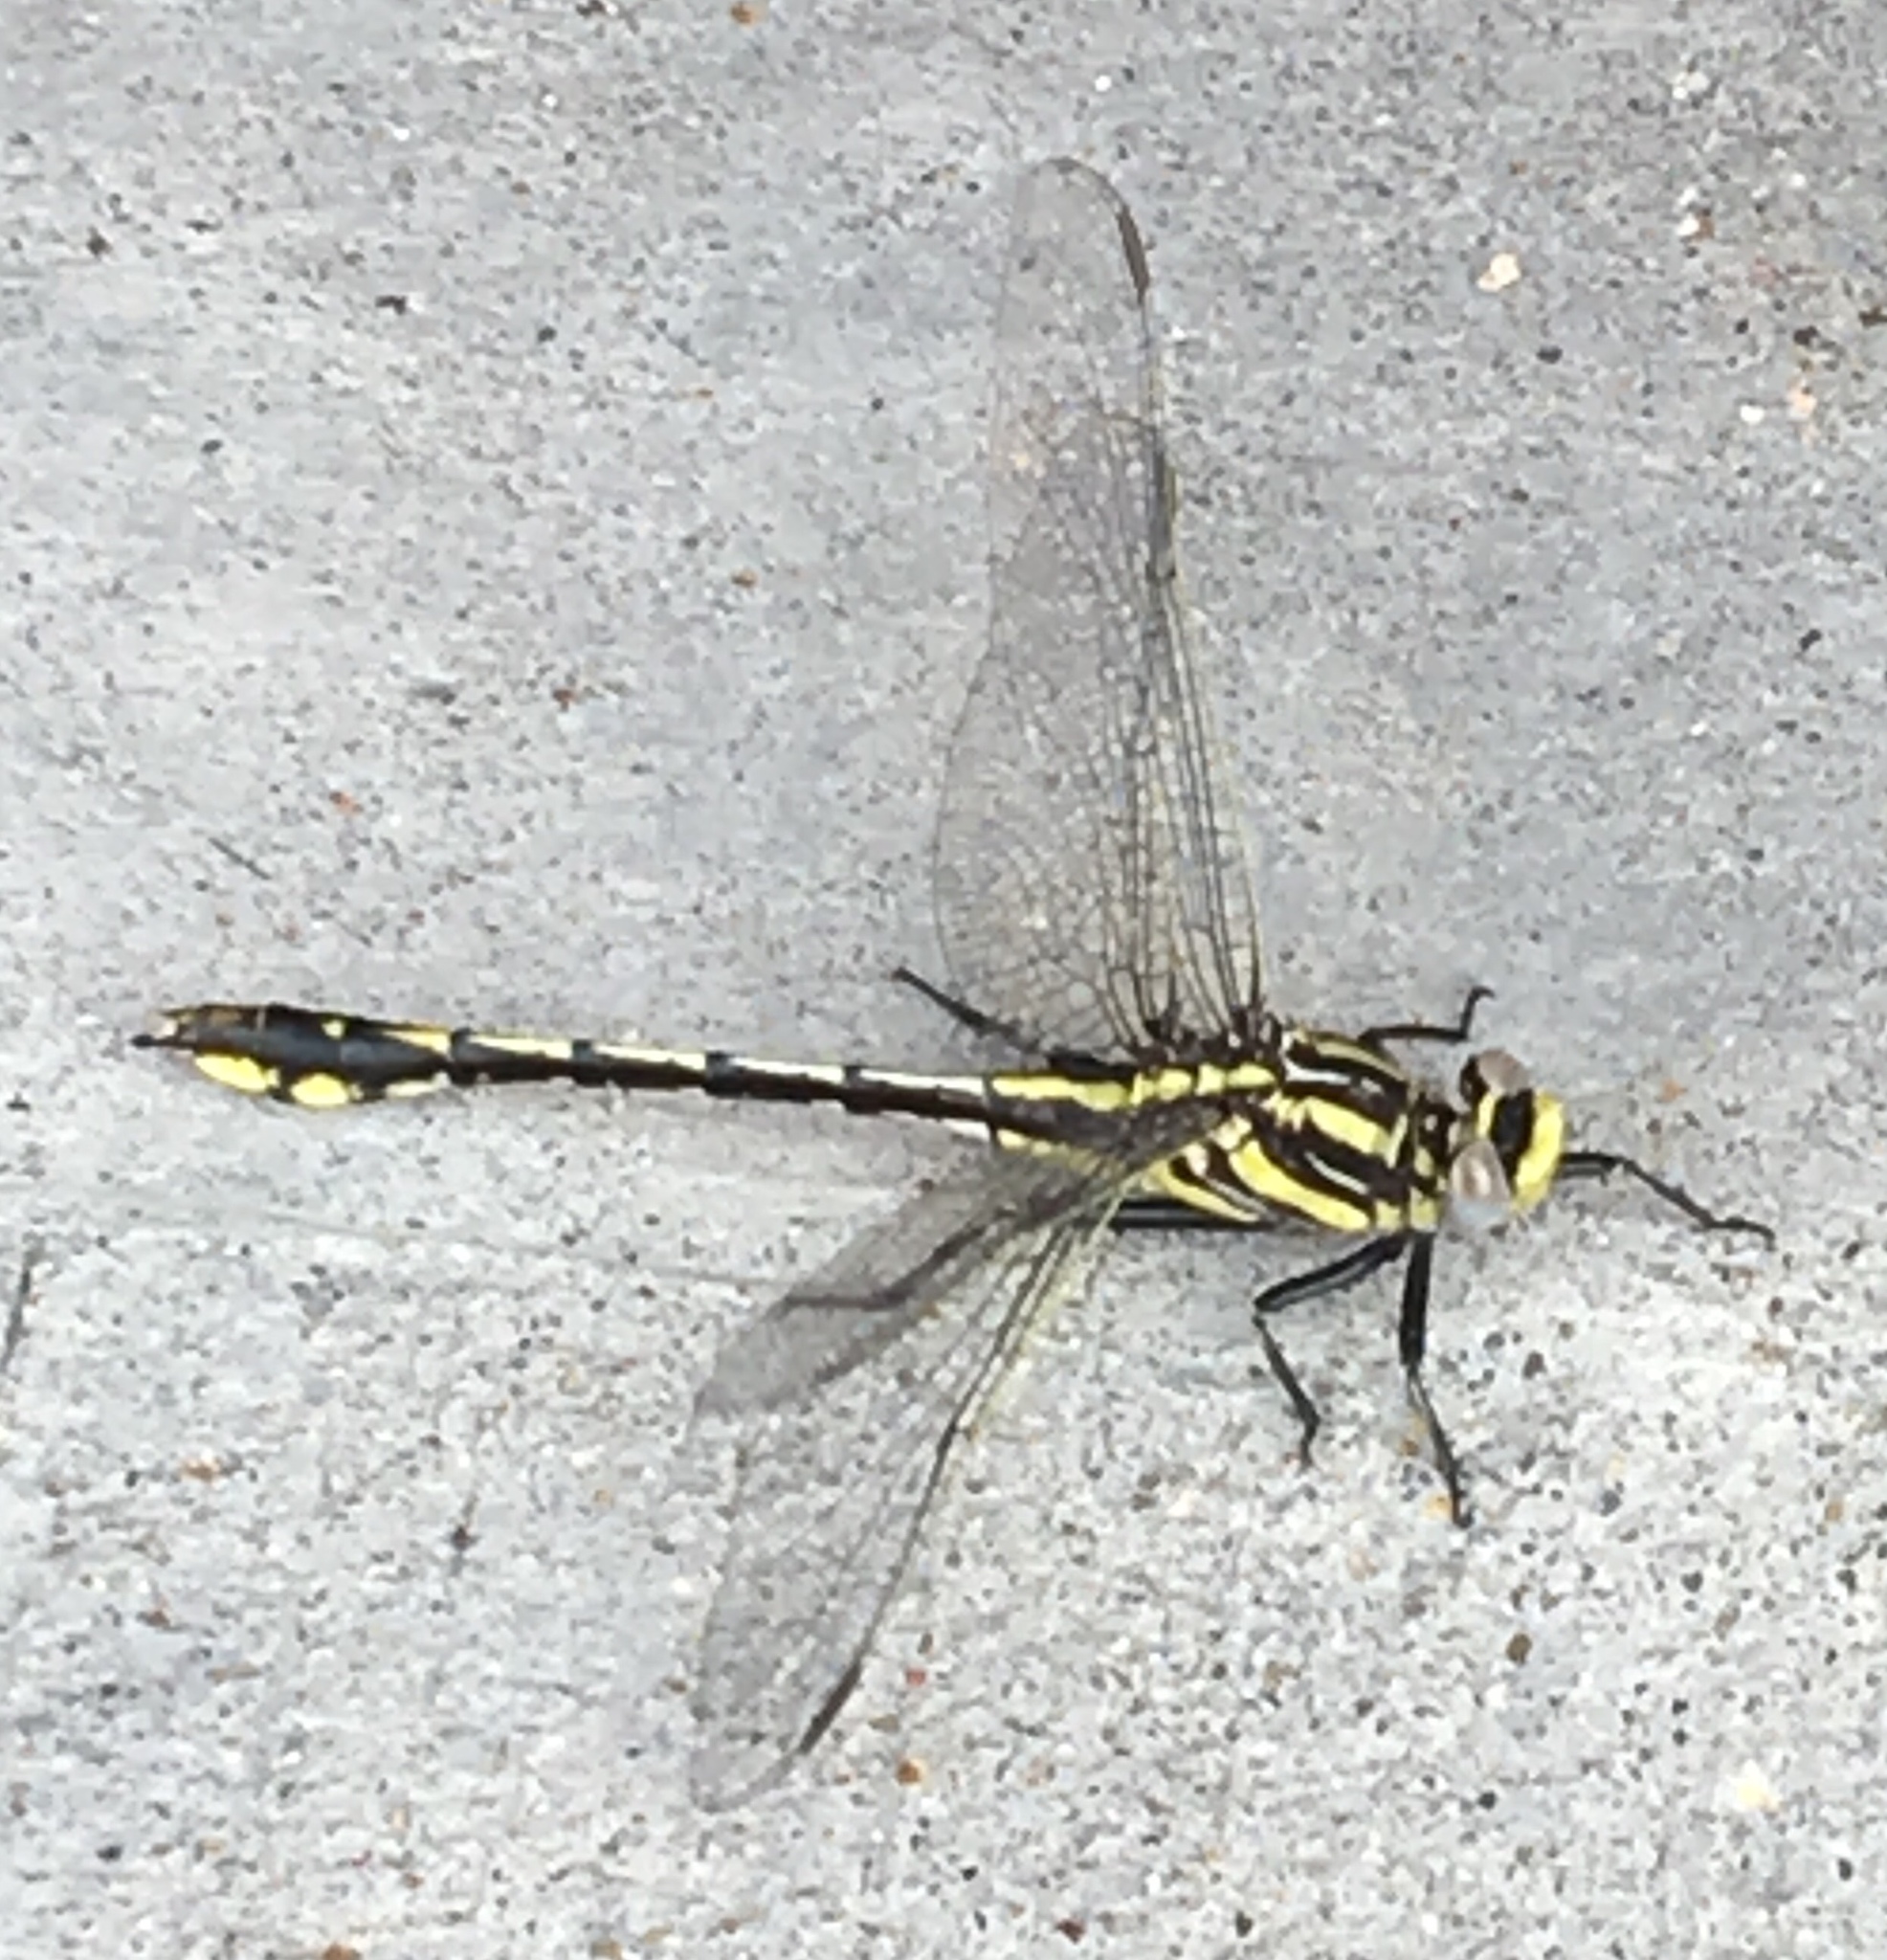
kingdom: Animalia
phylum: Arthropoda
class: Insecta
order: Odonata
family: Gomphidae
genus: Gomphurus
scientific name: Gomphurus externus
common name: Plains clubtail
